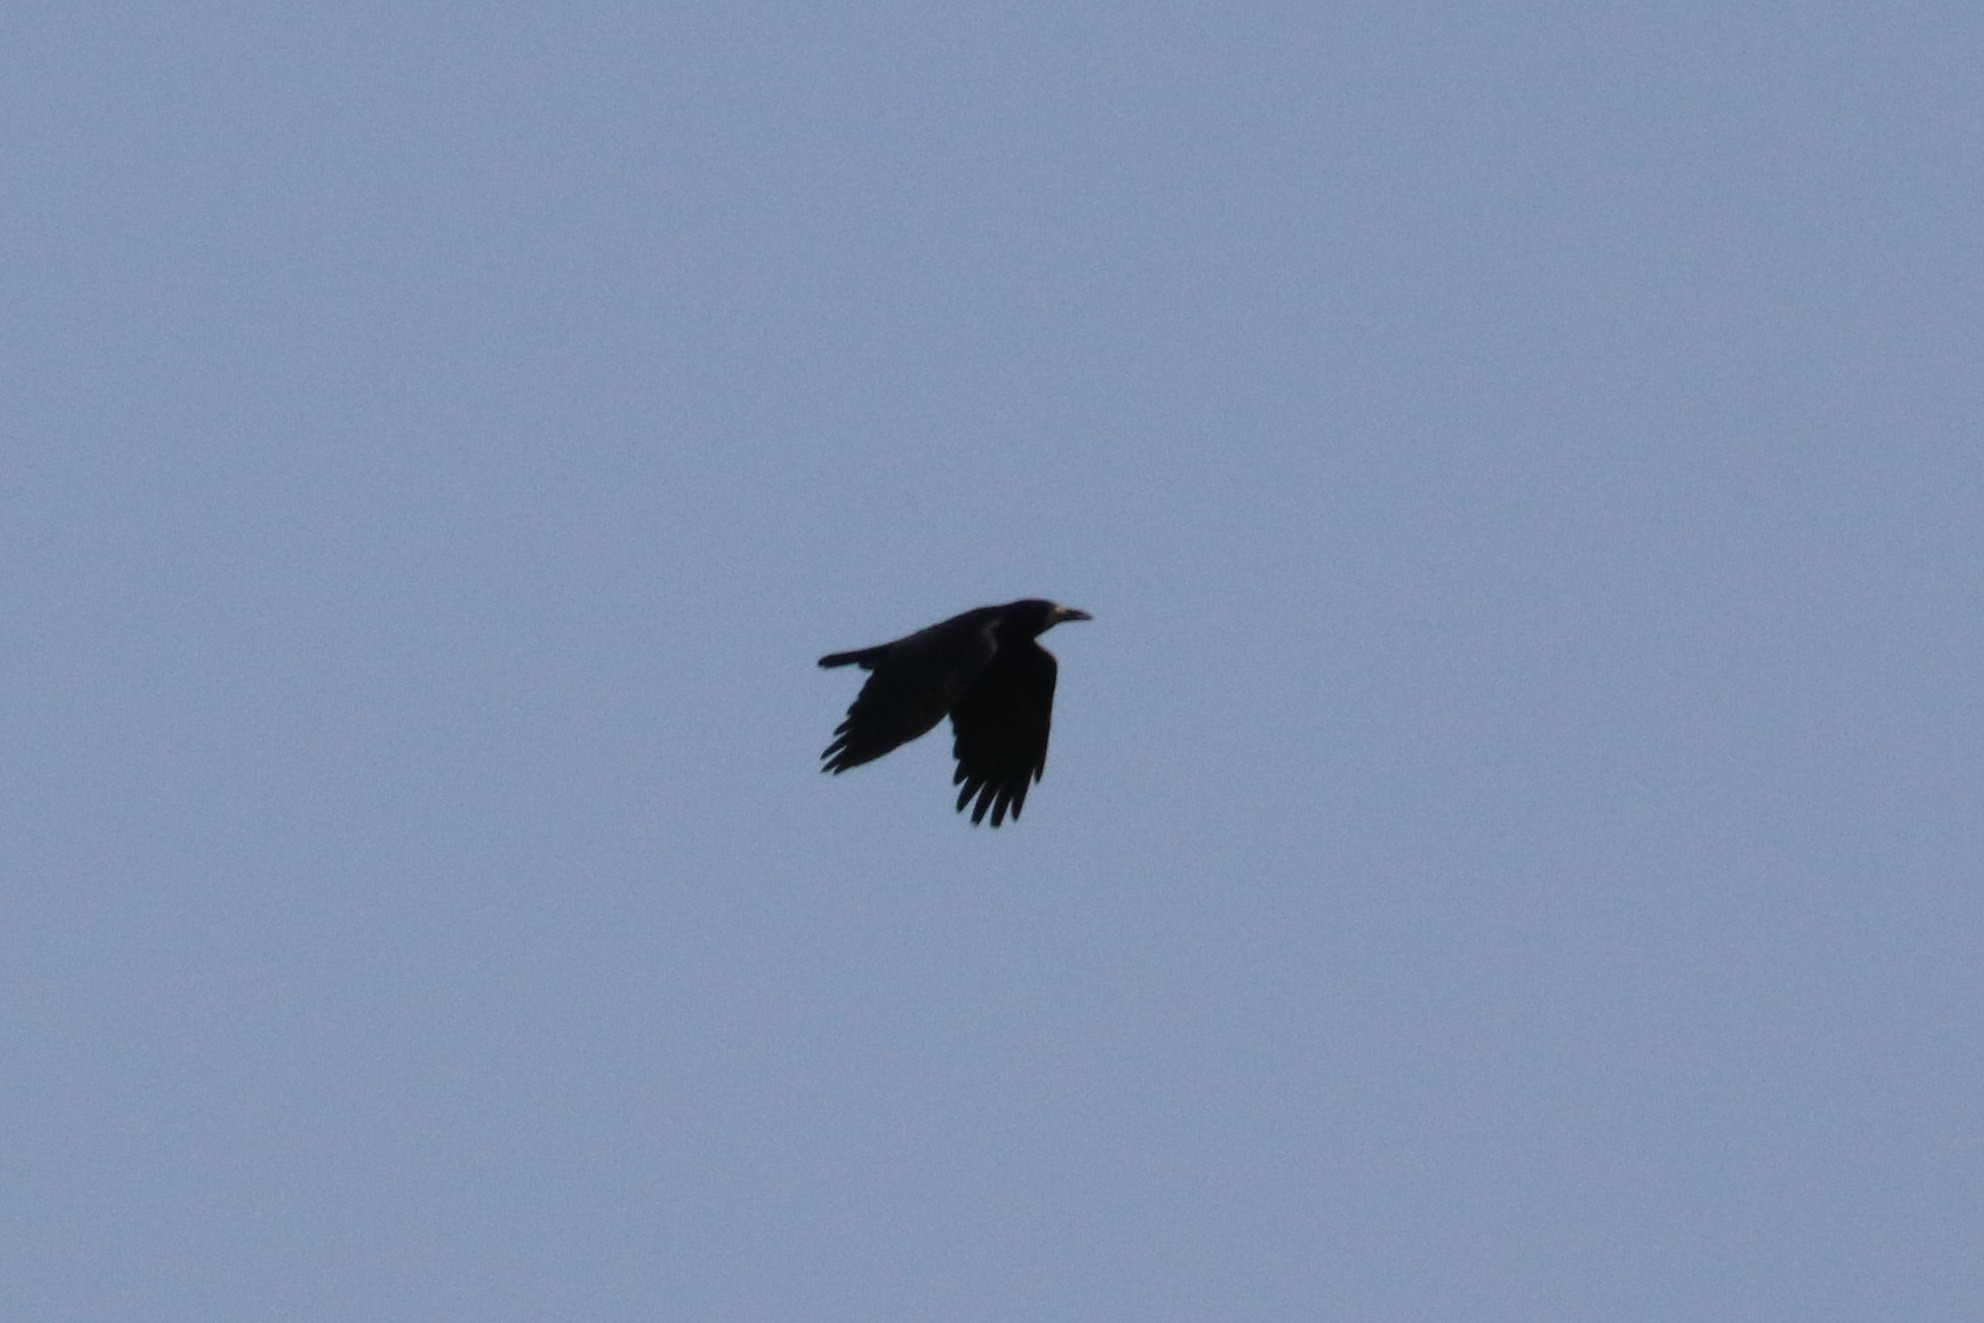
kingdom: Animalia
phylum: Chordata
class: Aves
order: Passeriformes
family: Corvidae
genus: Corvus
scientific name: Corvus frugilegus
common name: Rook
